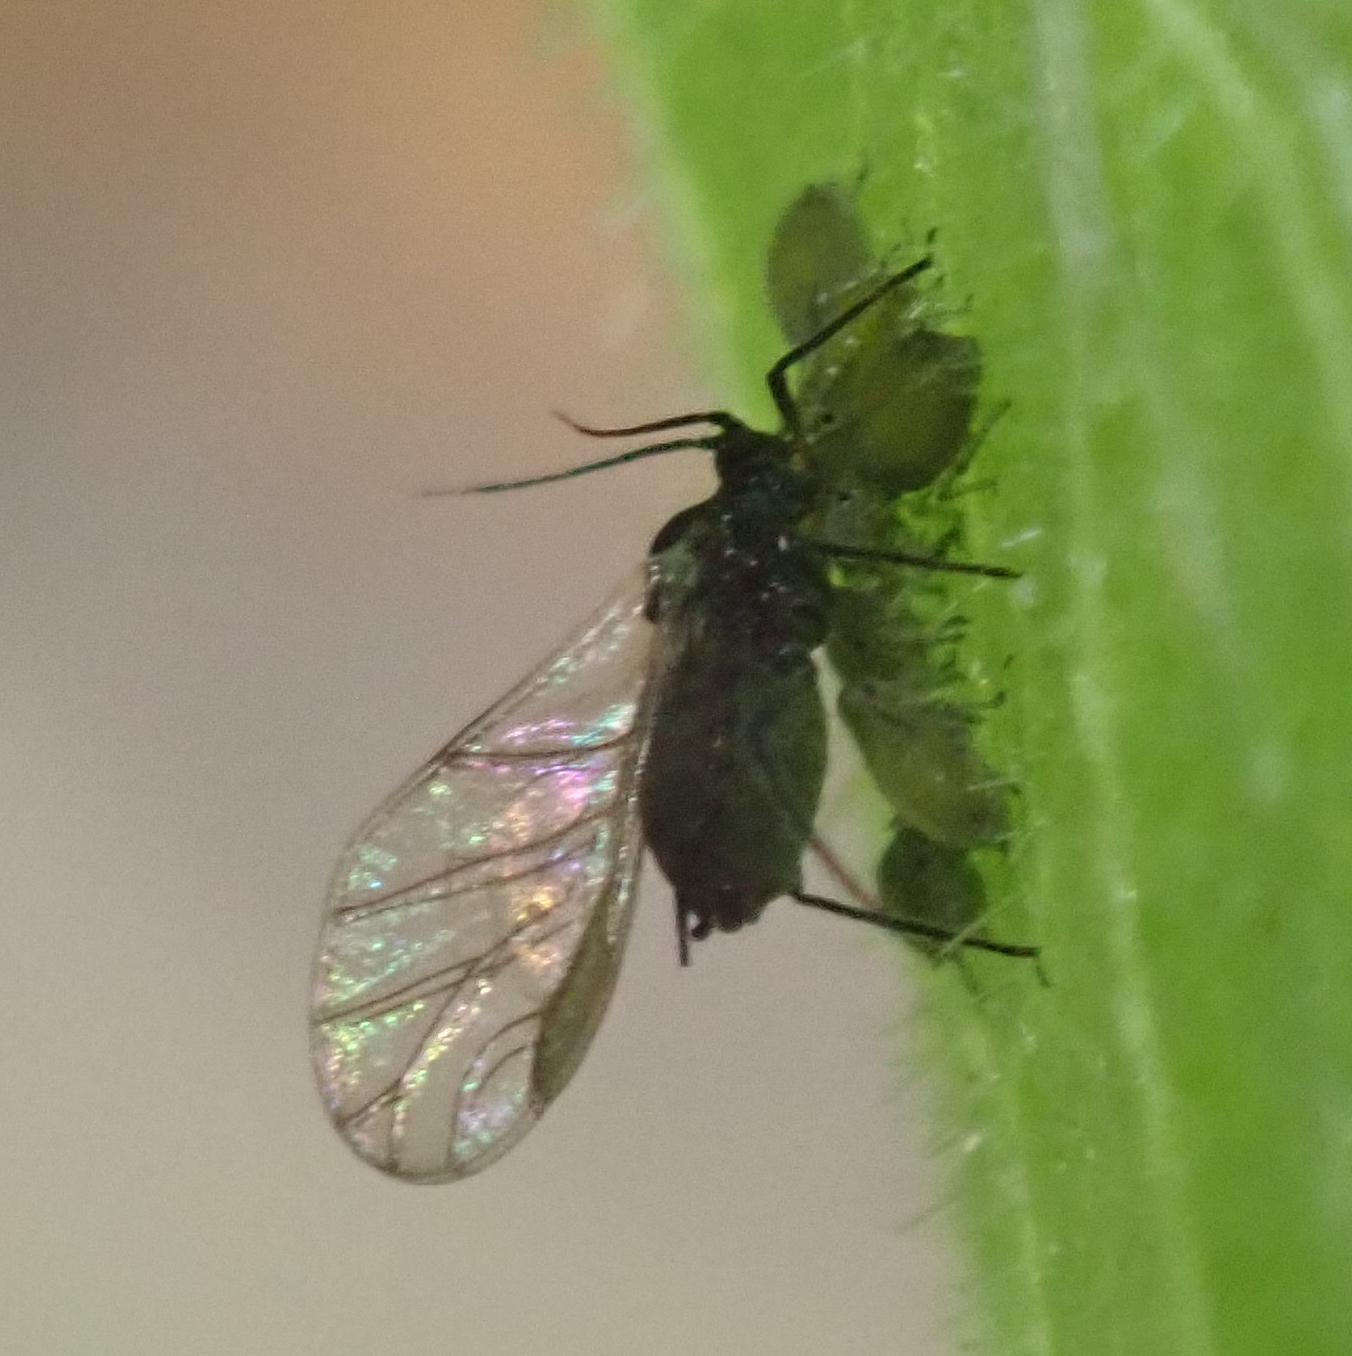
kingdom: Animalia
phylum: Arthropoda
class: Insecta
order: Hemiptera
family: Aphididae
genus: Aphis
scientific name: Aphis sambuci
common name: Elder aphid
